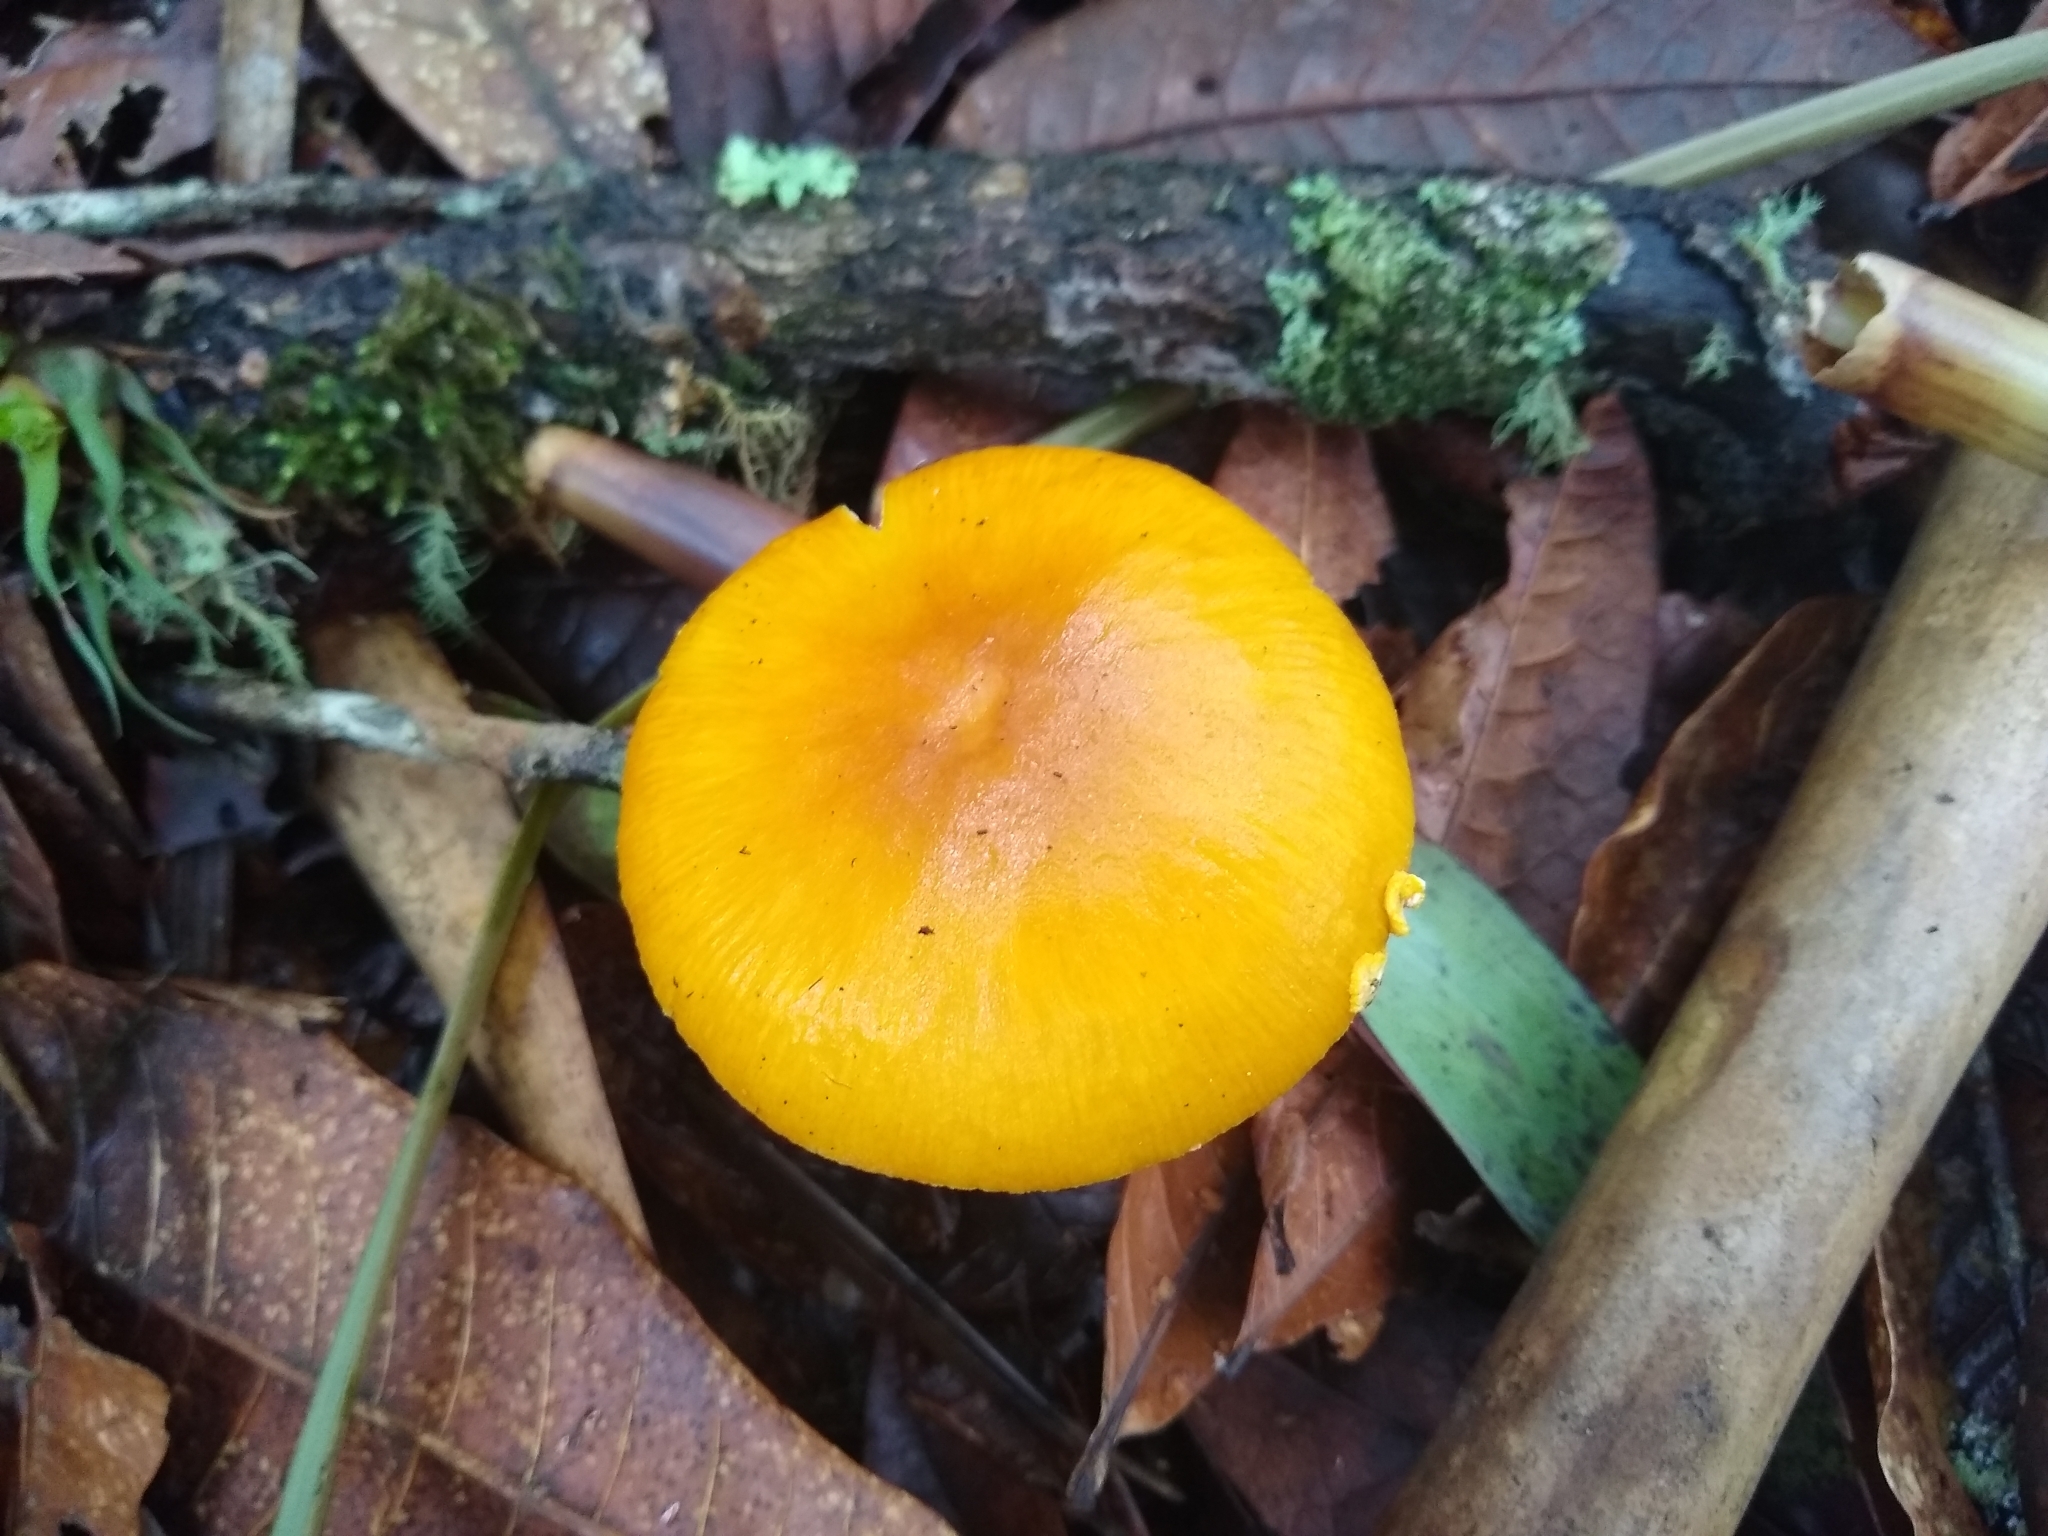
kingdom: Fungi
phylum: Basidiomycota
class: Agaricomycetes
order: Agaricales
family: Amanitaceae
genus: Amanita
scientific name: Amanita flavoconia
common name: Yellow patches
